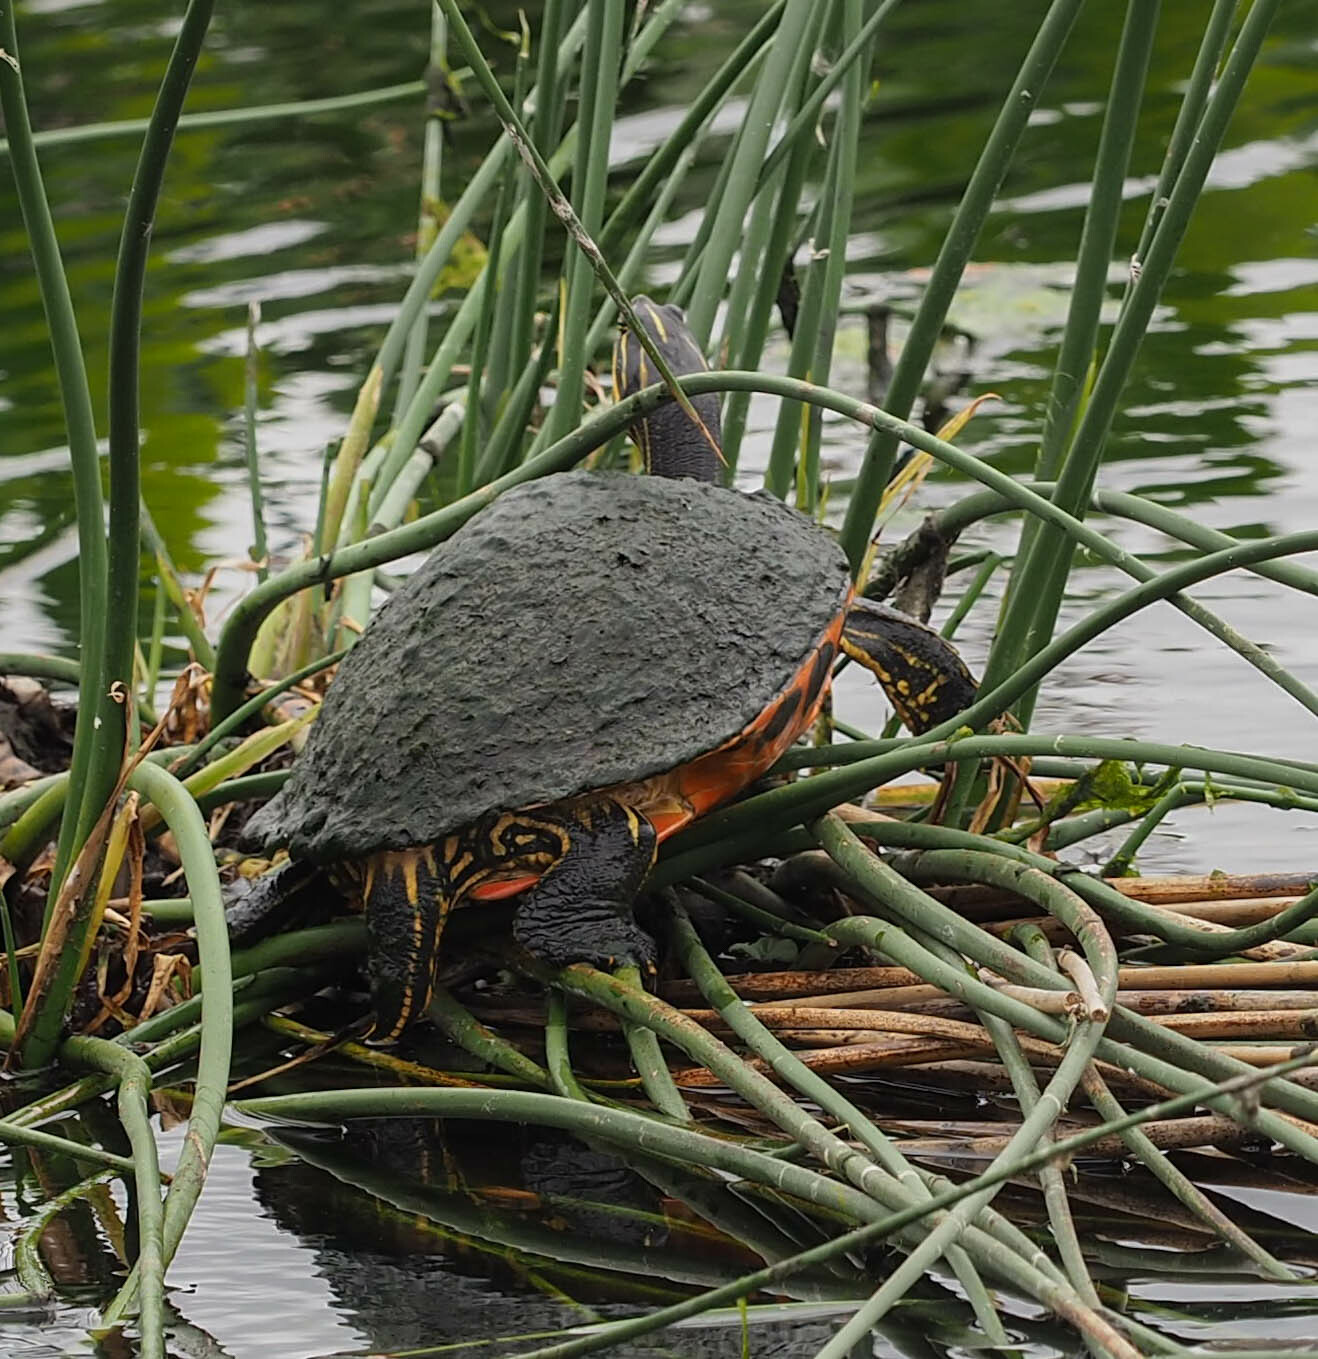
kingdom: Animalia
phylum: Chordata
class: Testudines
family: Emydidae
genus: Pseudemys
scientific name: Pseudemys nelsoni
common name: Florida red-bellied turtle
